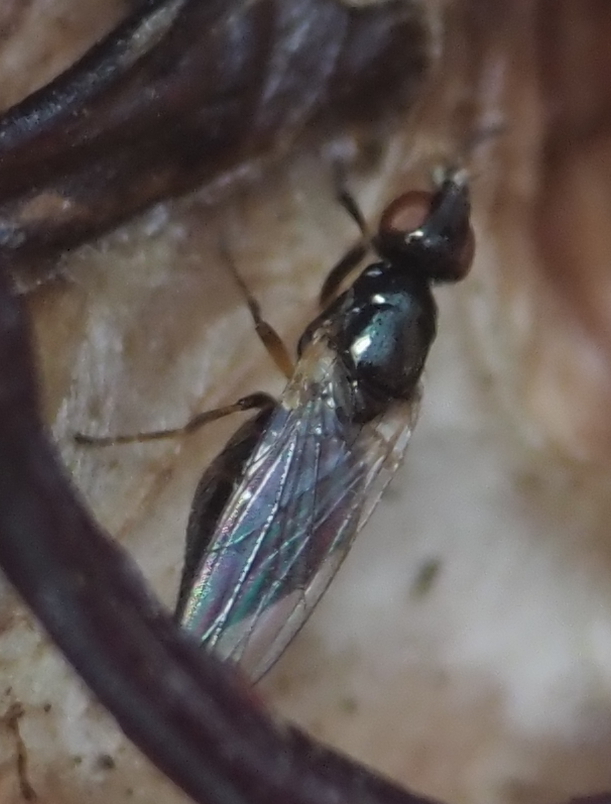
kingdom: Animalia
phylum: Arthropoda
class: Insecta
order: Diptera
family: Piophilidae
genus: Prochyliza
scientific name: Prochyliza xanthostoma
